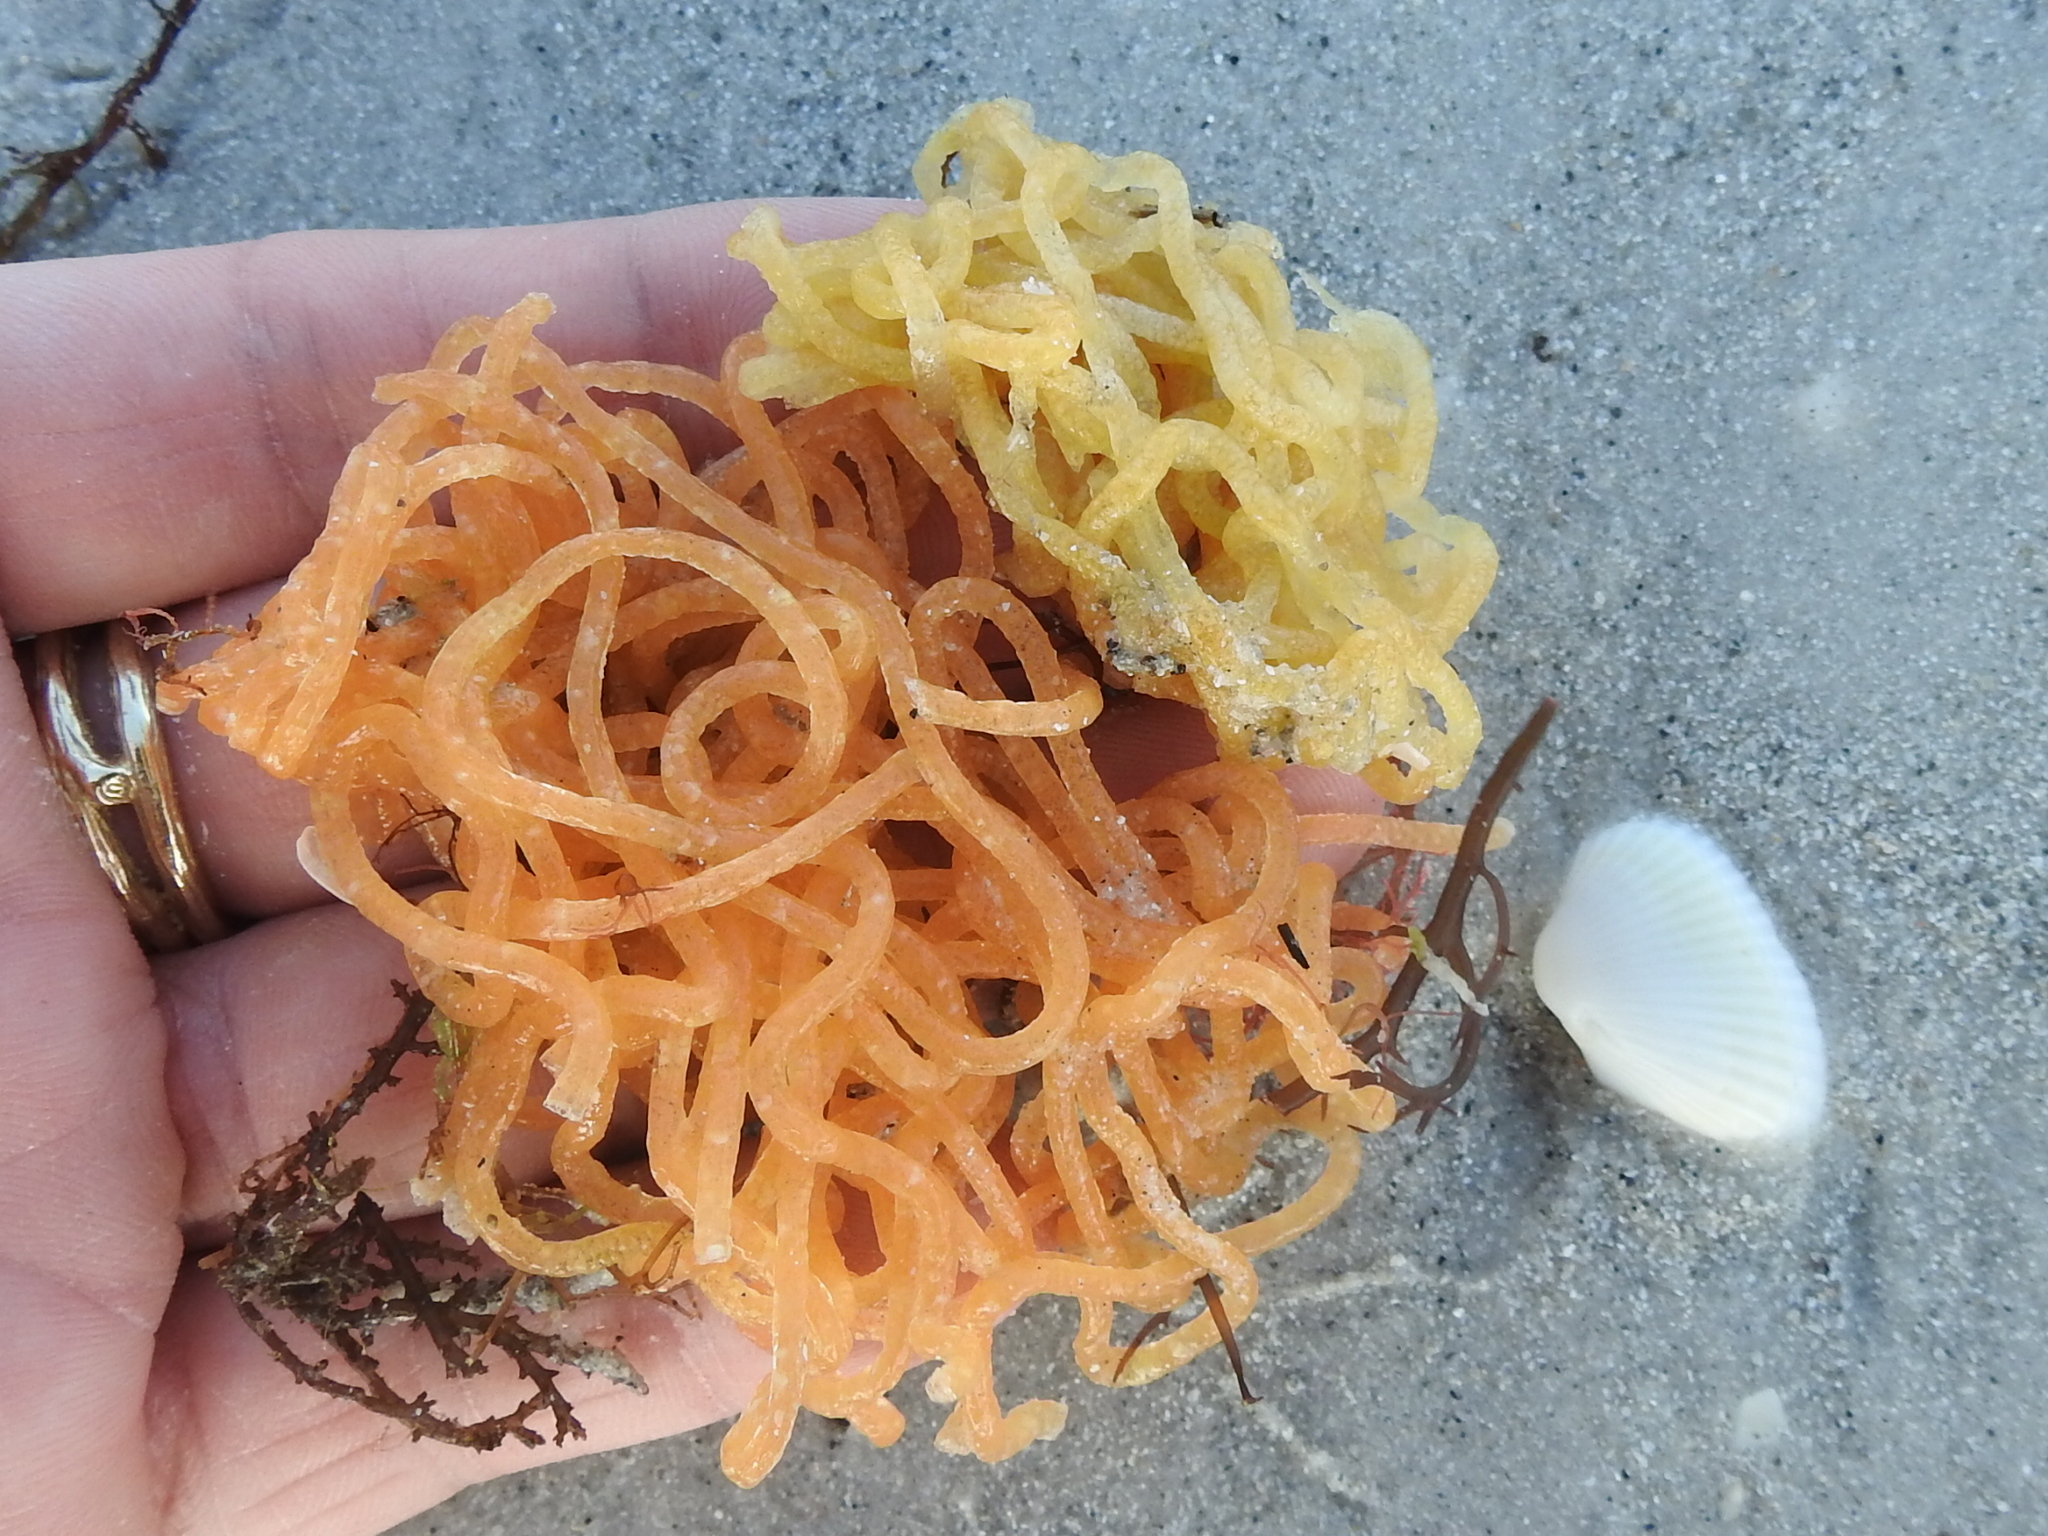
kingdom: Animalia
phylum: Mollusca
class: Gastropoda
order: Aplysiida
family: Aplysiidae
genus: Aplysia
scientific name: Aplysia
